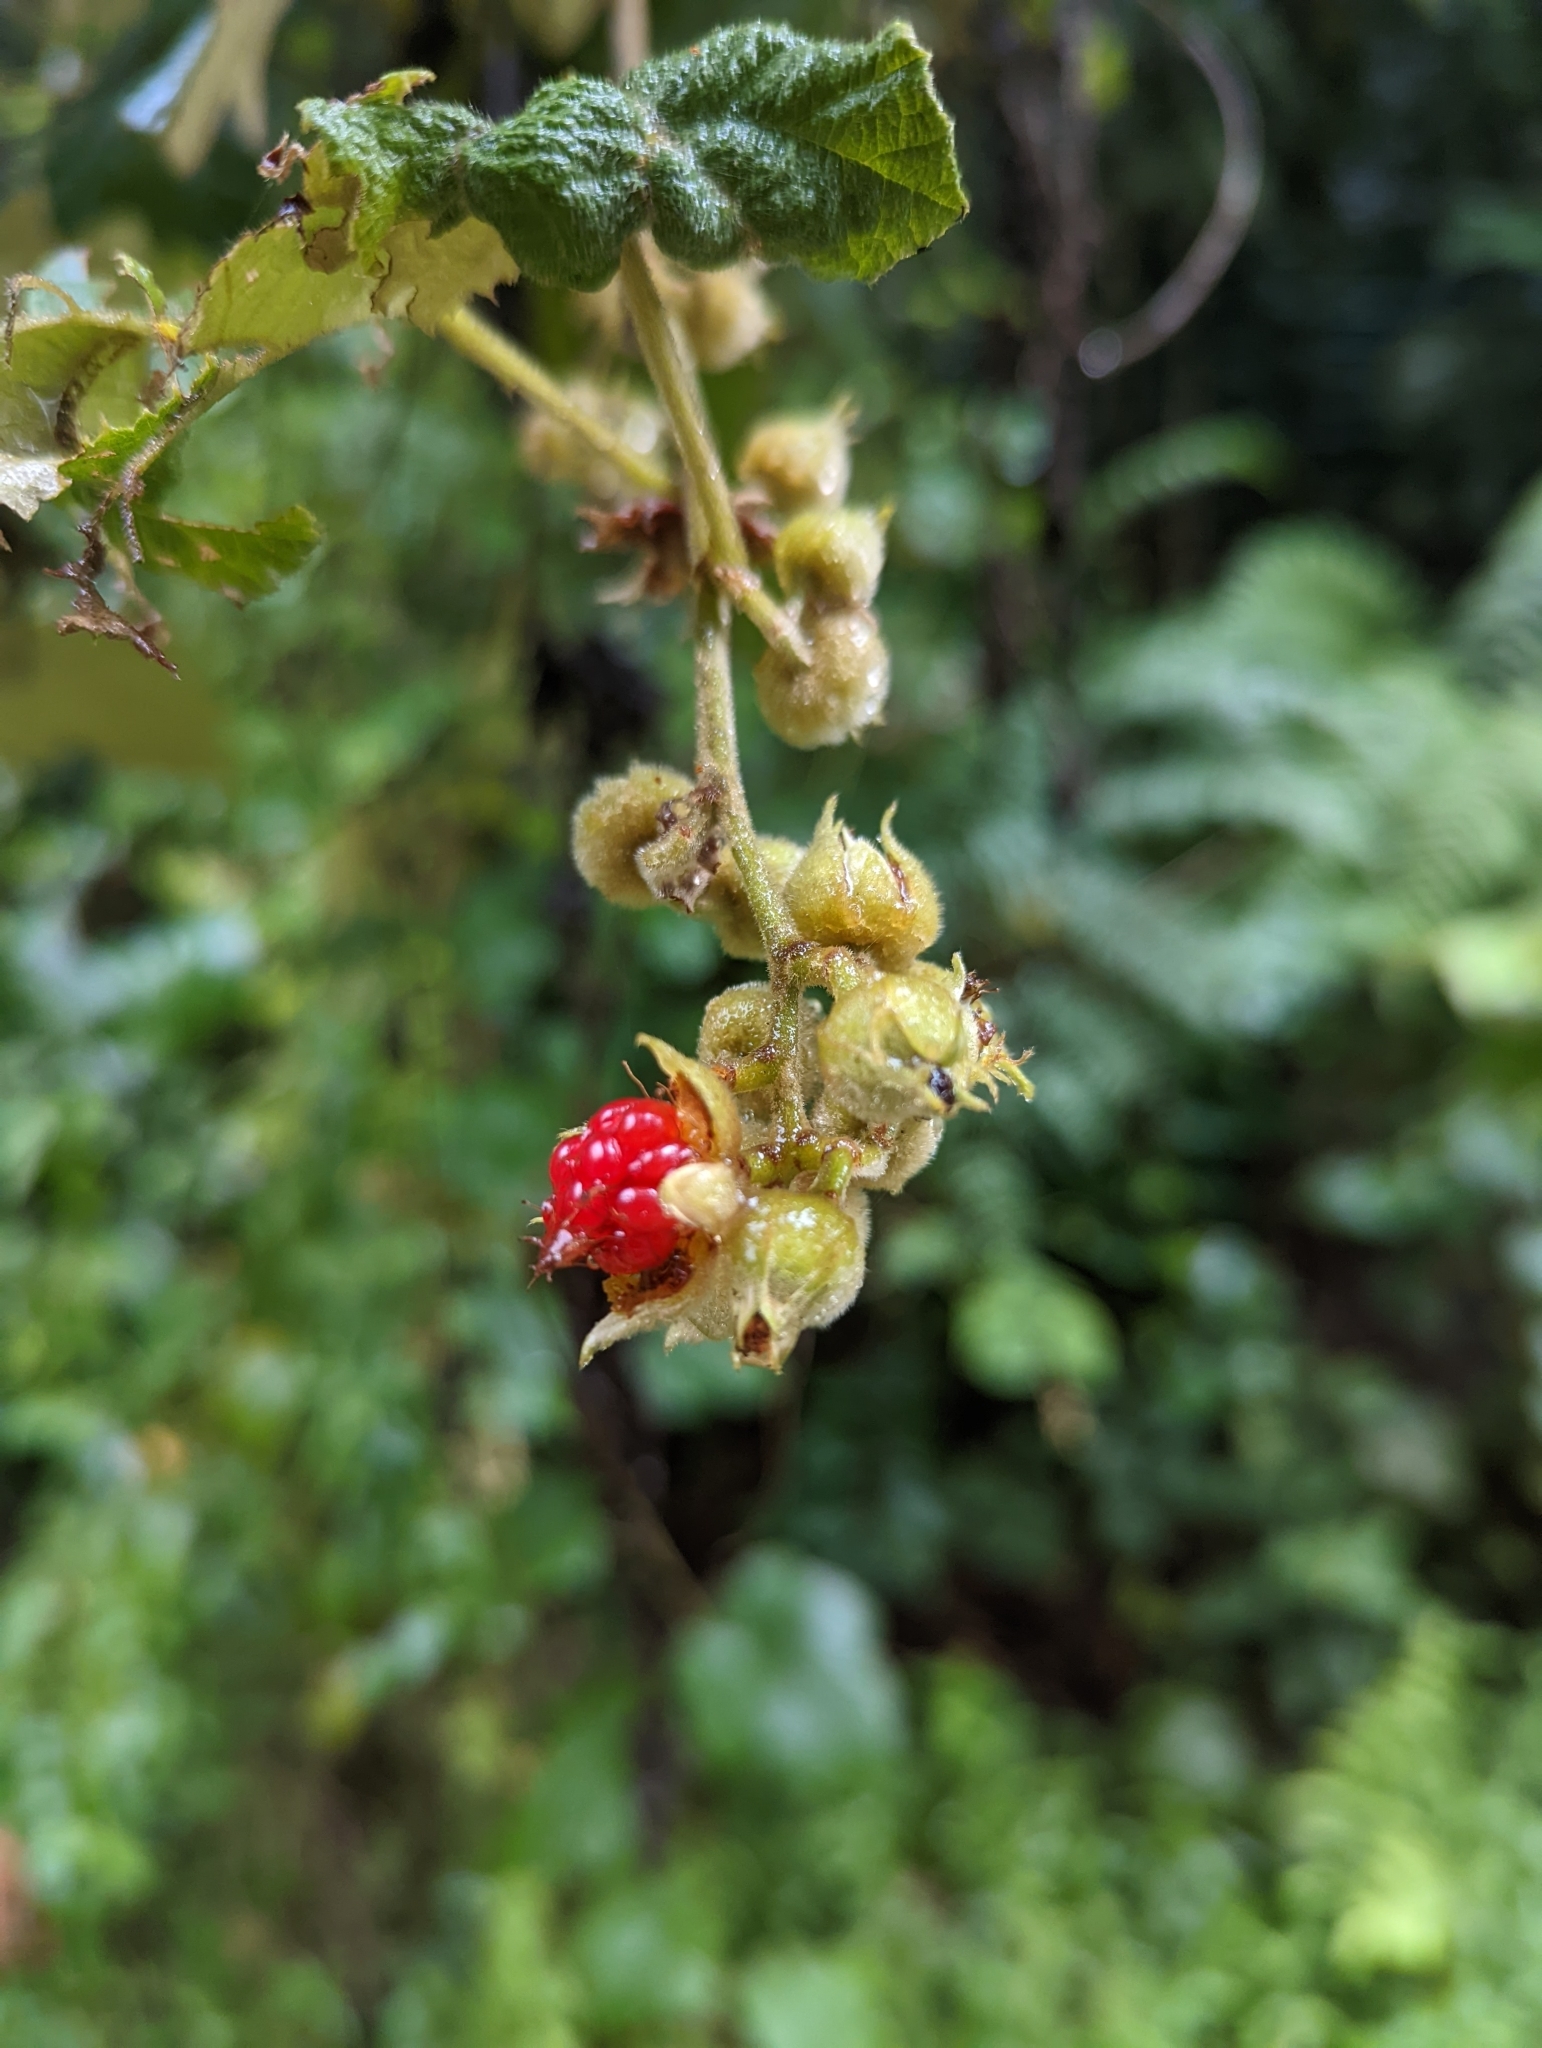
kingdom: Plantae
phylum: Tracheophyta
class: Magnoliopsida
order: Rosales
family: Rosaceae
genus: Rubus
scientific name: Rubus moluccanus
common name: Wild raspberry
